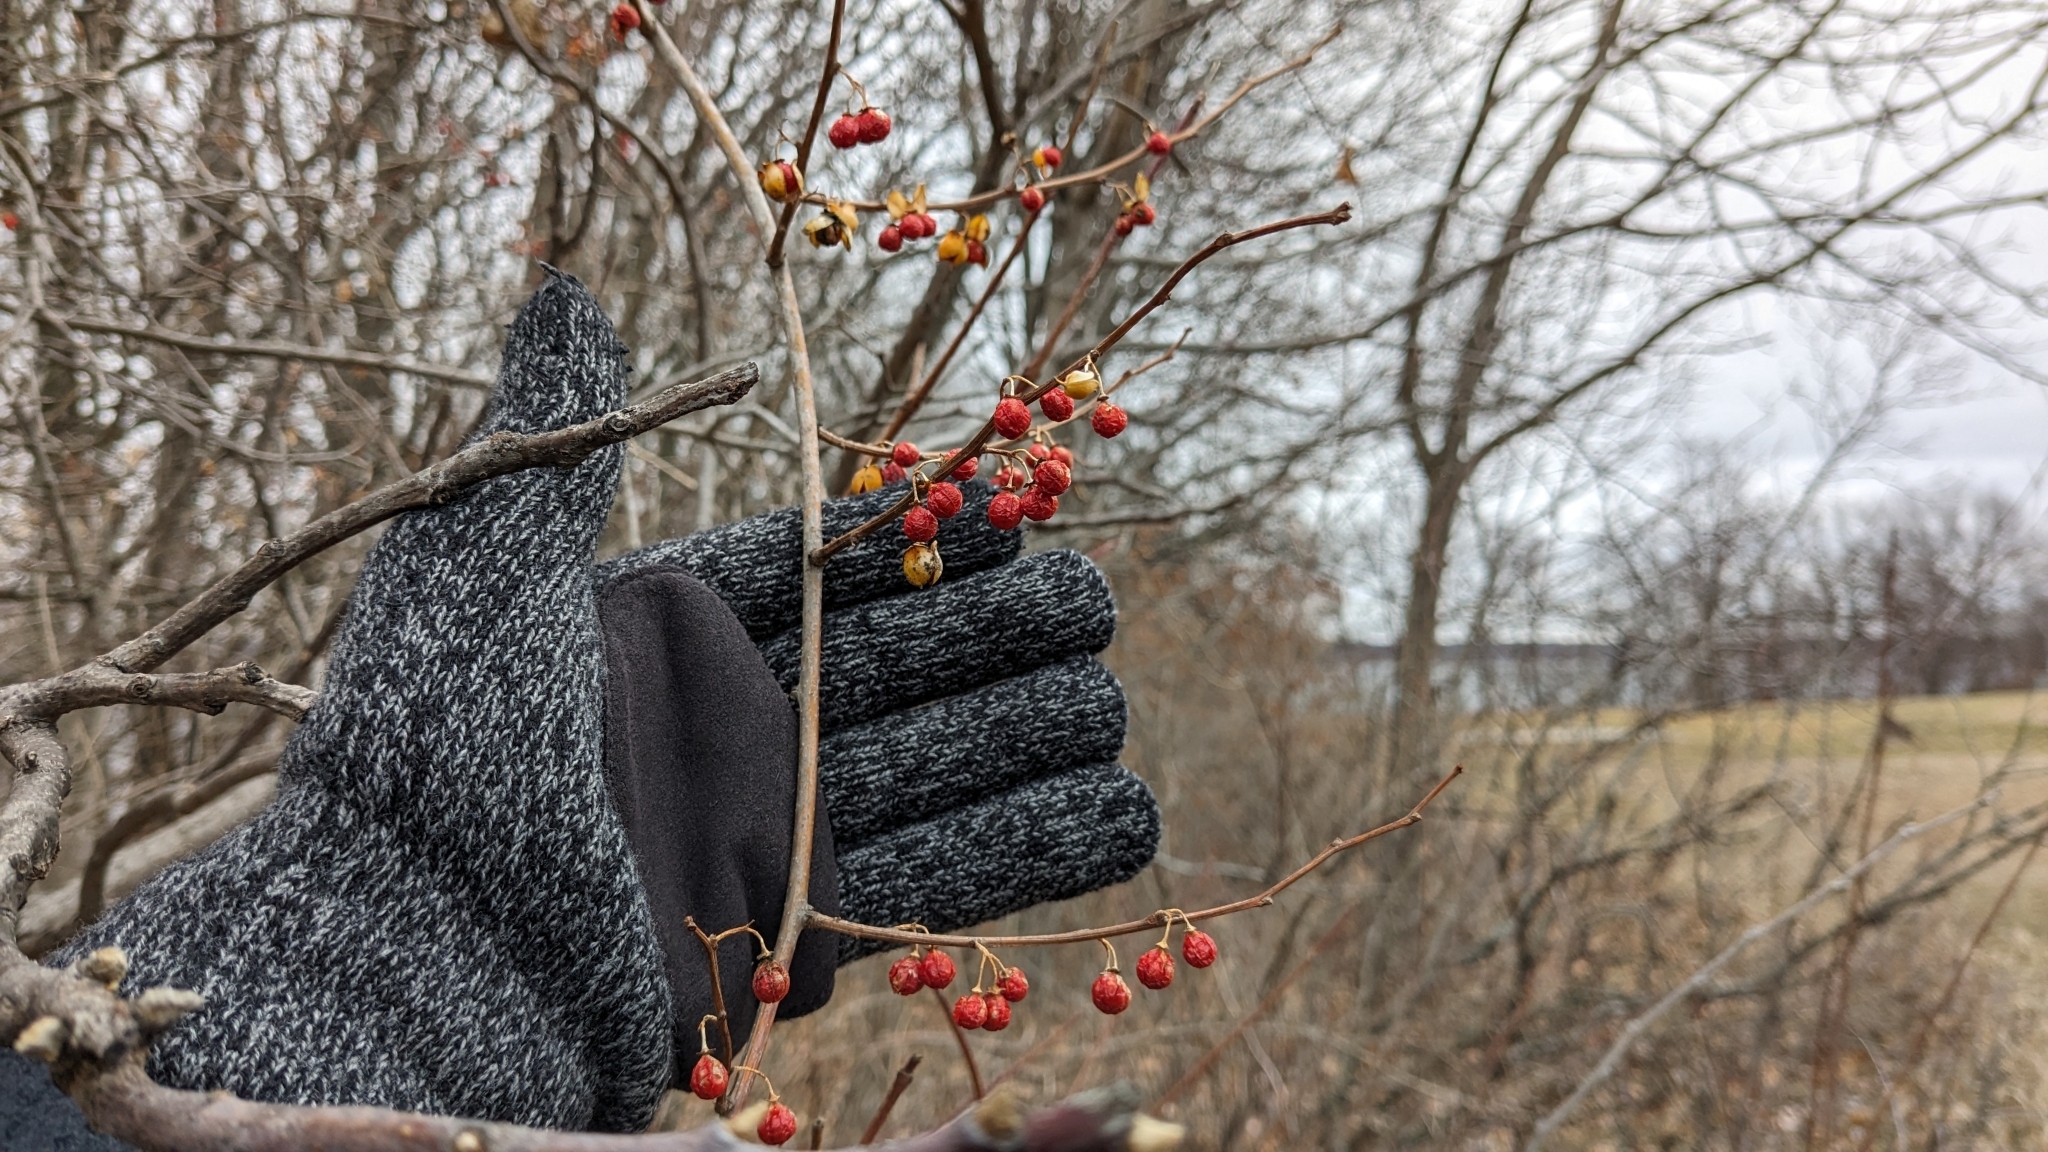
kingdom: Plantae
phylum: Tracheophyta
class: Magnoliopsida
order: Celastrales
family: Celastraceae
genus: Celastrus
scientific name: Celastrus orbiculatus
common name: Oriental bittersweet
